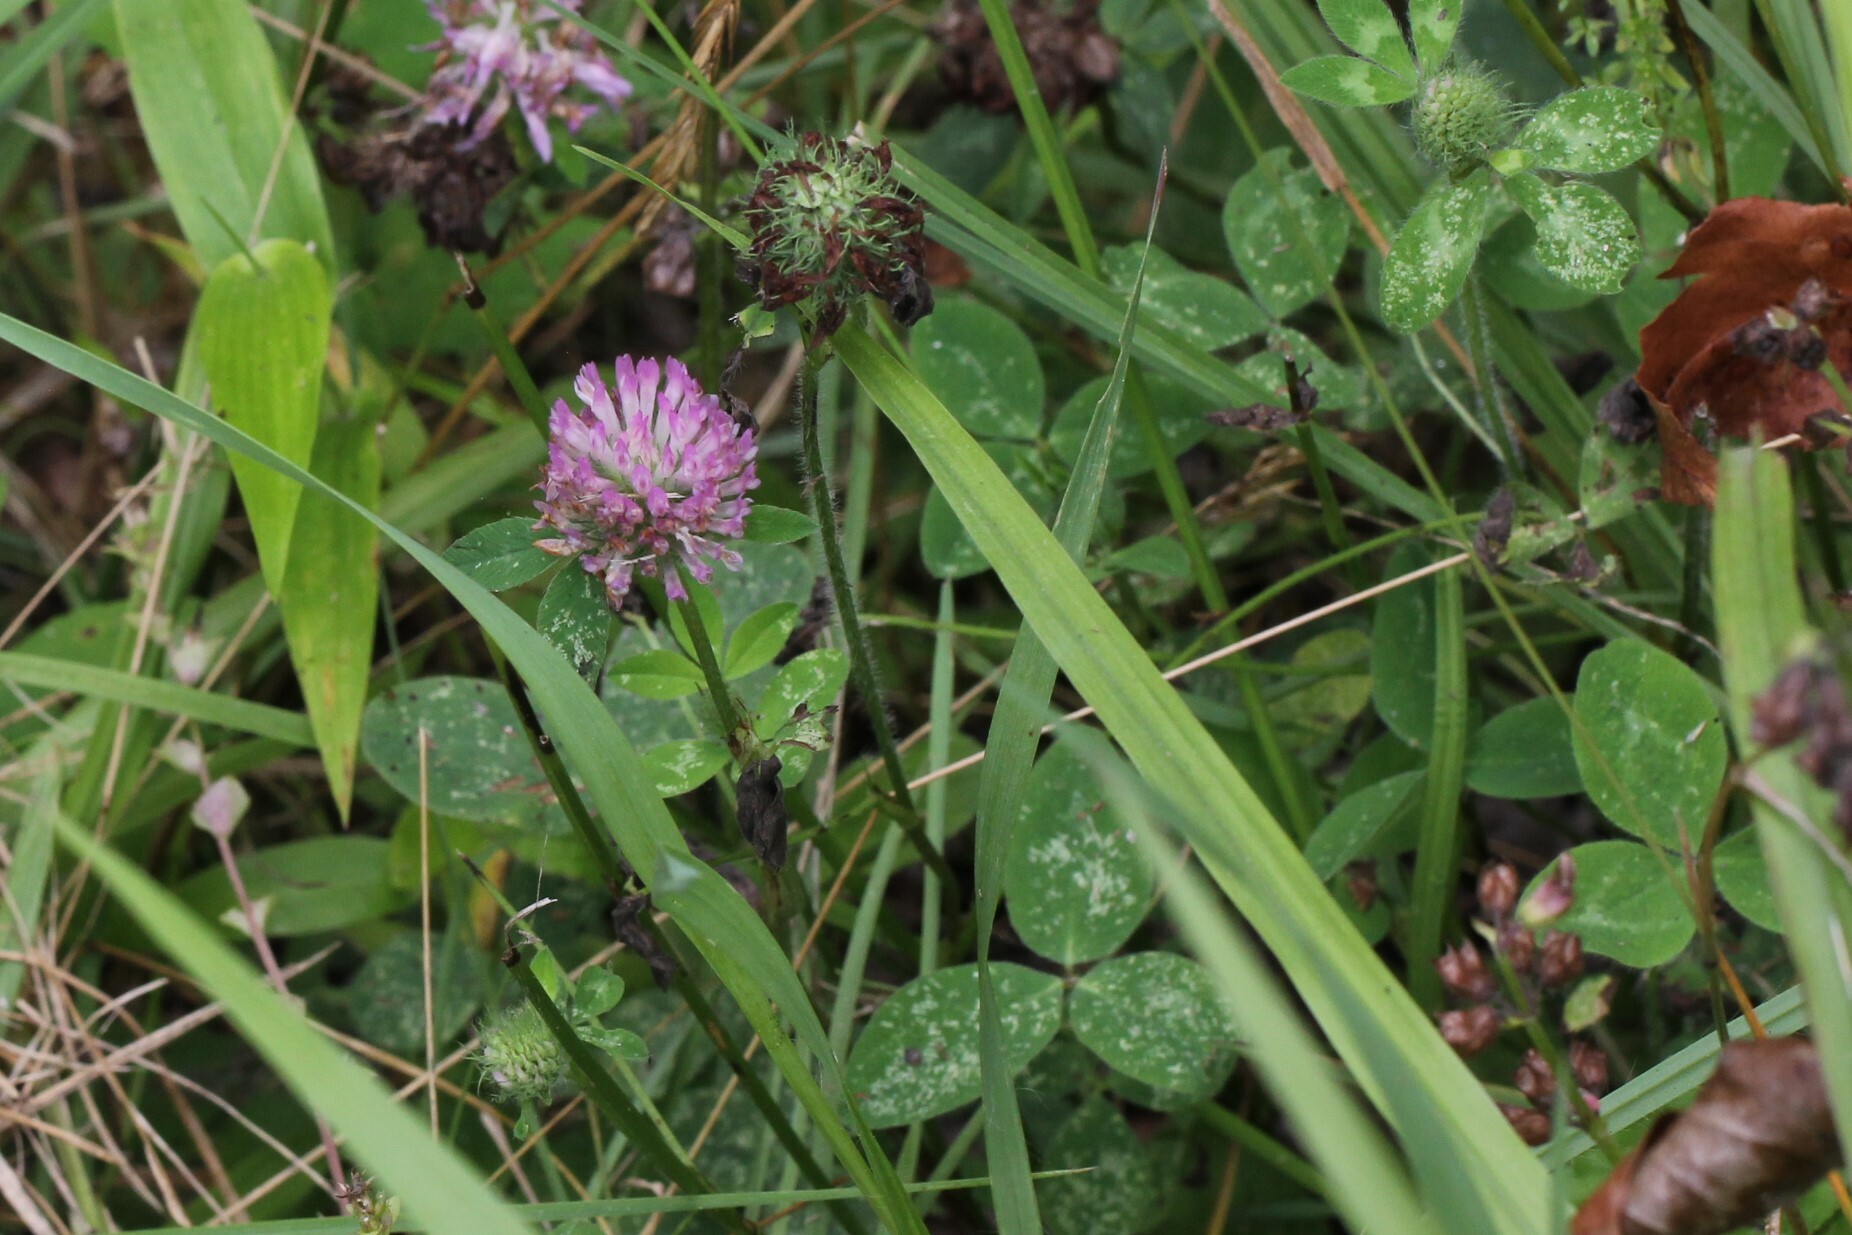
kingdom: Plantae
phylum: Tracheophyta
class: Magnoliopsida
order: Fabales
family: Fabaceae
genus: Trifolium
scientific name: Trifolium pratense
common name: Red clover
